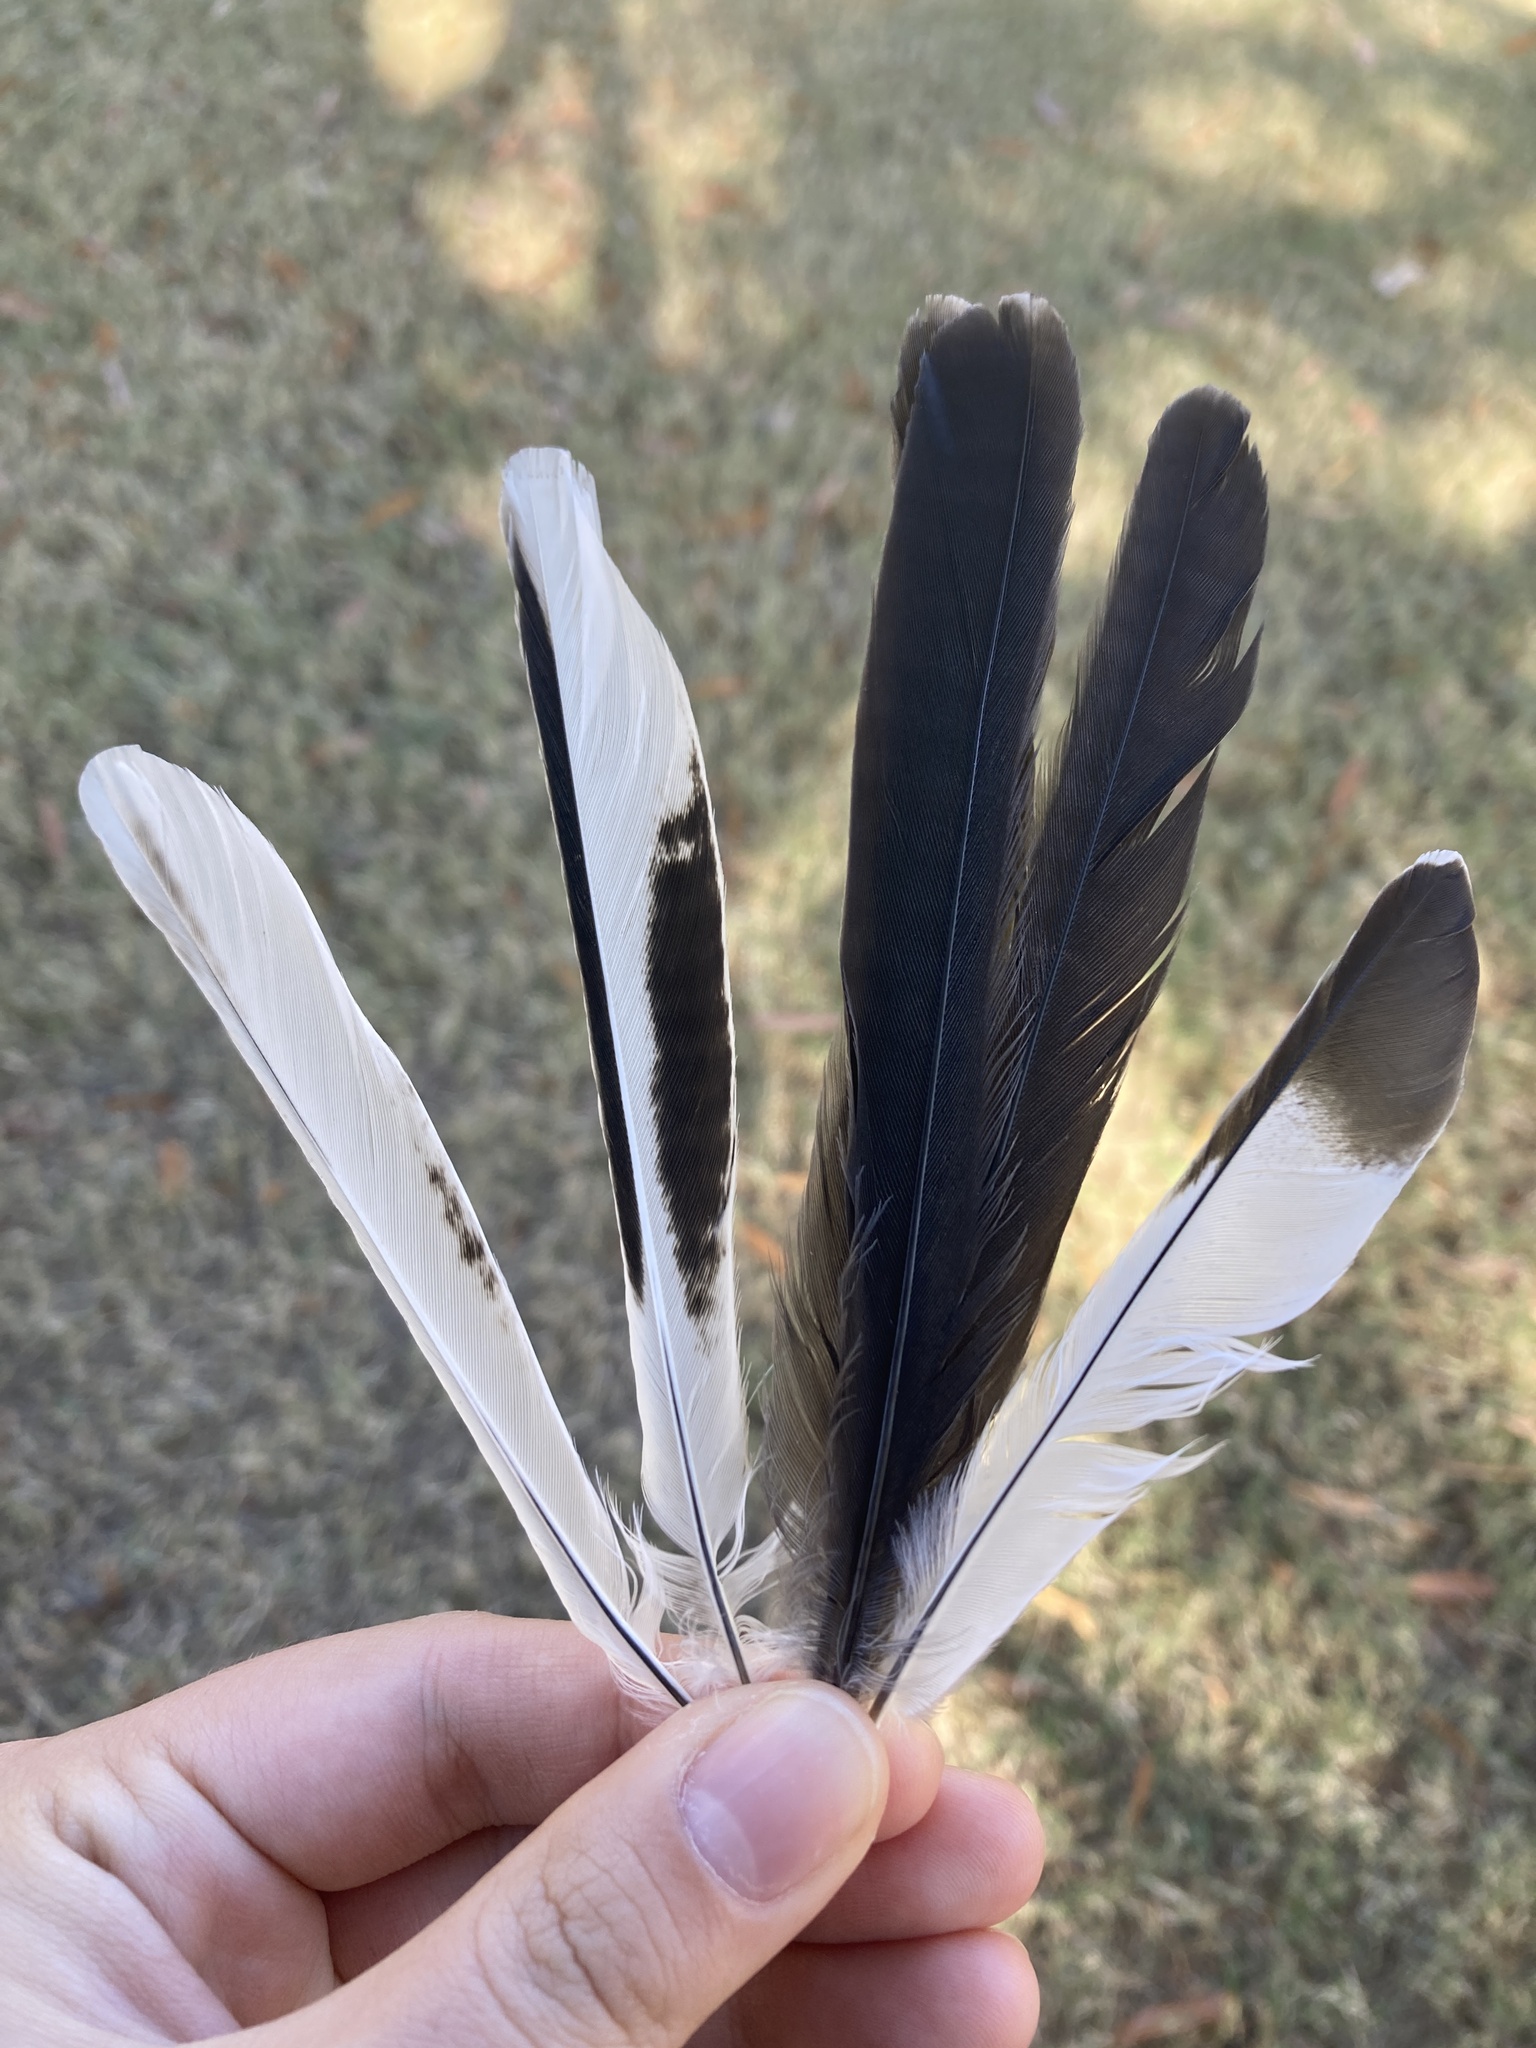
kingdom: Animalia
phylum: Chordata
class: Aves
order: Passeriformes
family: Mimidae
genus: Mimus
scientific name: Mimus polyglottos
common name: Northern mockingbird
